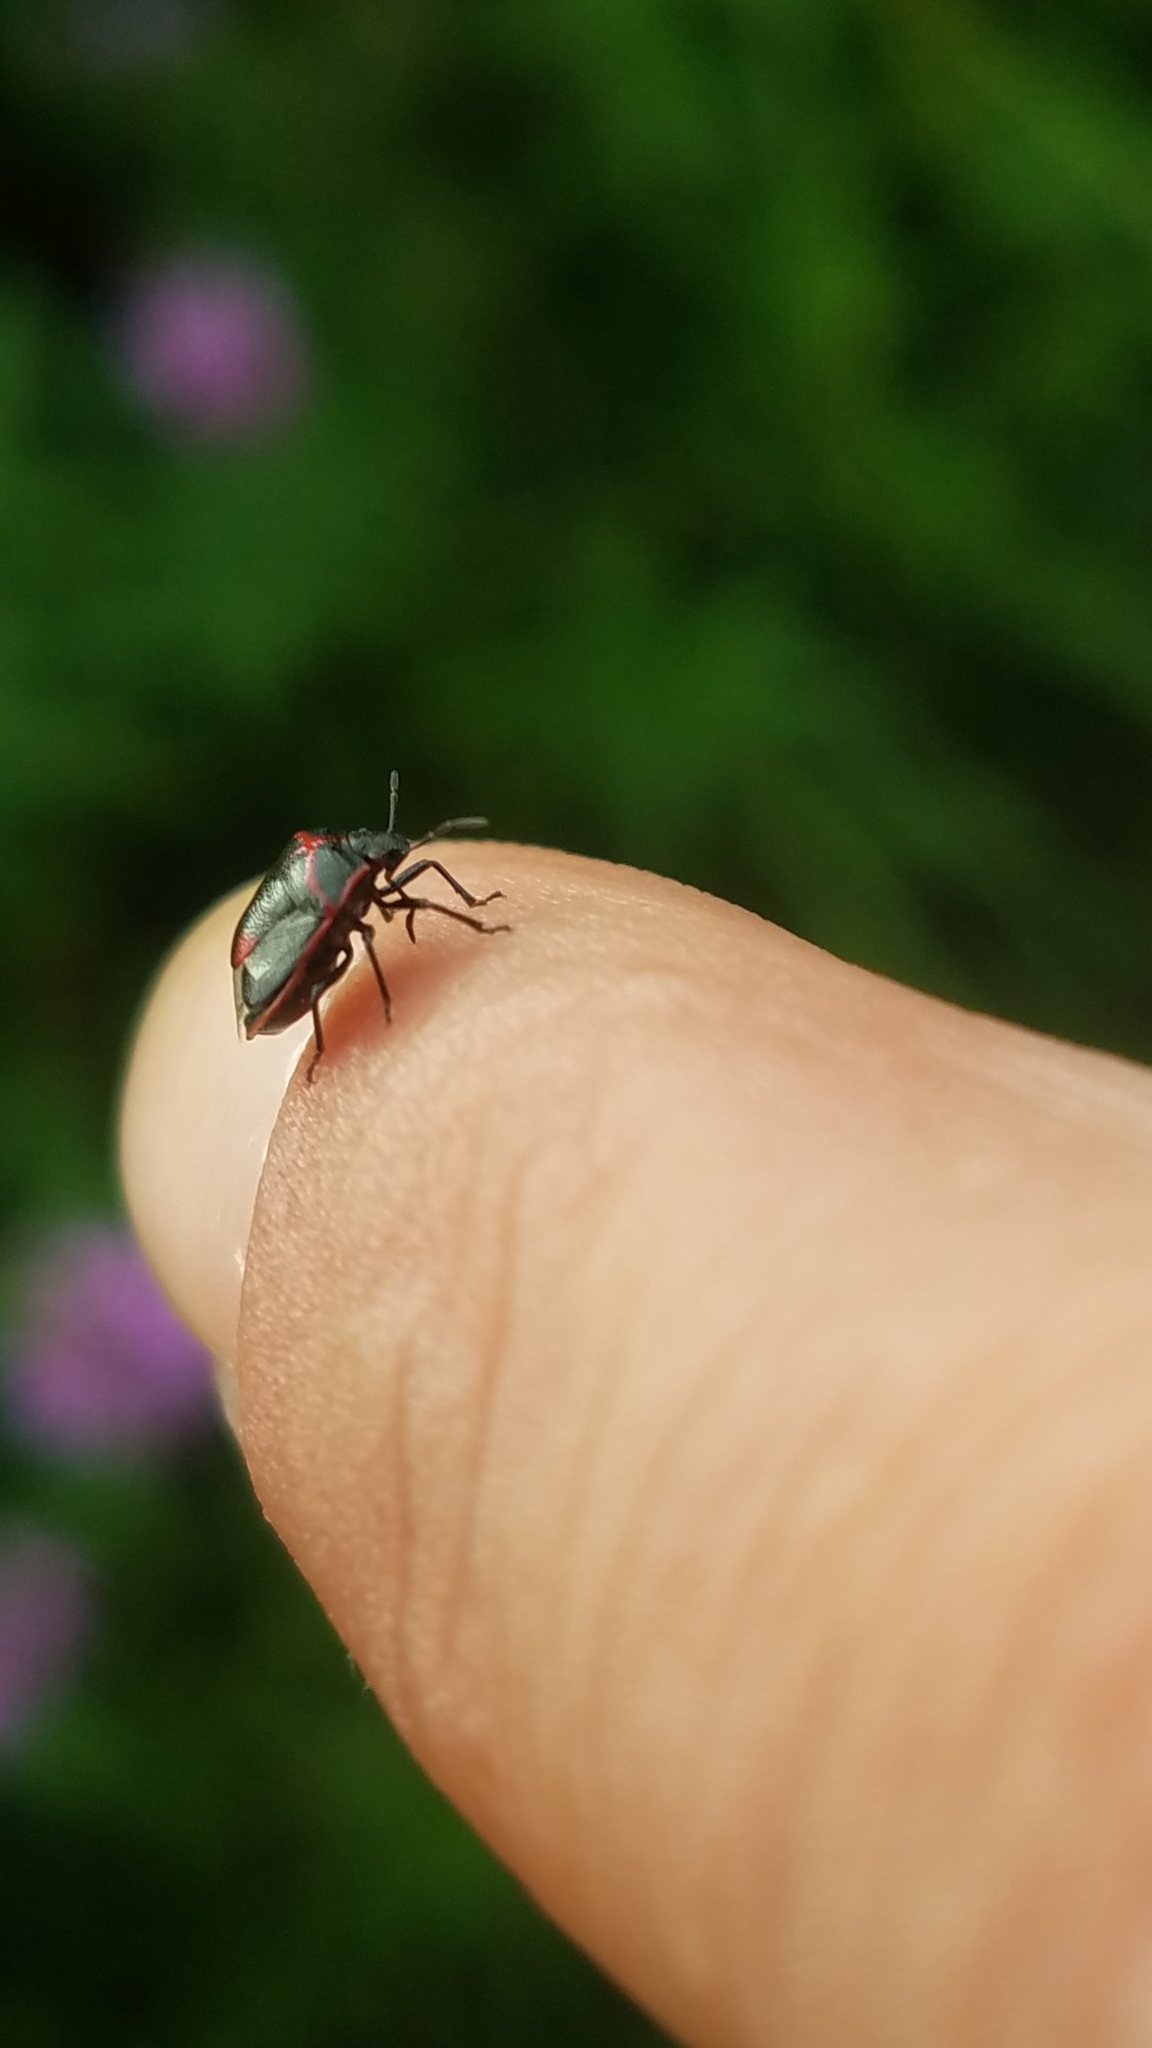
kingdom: Animalia
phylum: Arthropoda
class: Insecta
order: Hemiptera
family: Pentatomidae
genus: Cosmopepla
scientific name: Cosmopepla lintneriana
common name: Twice-stabbed stink bug
